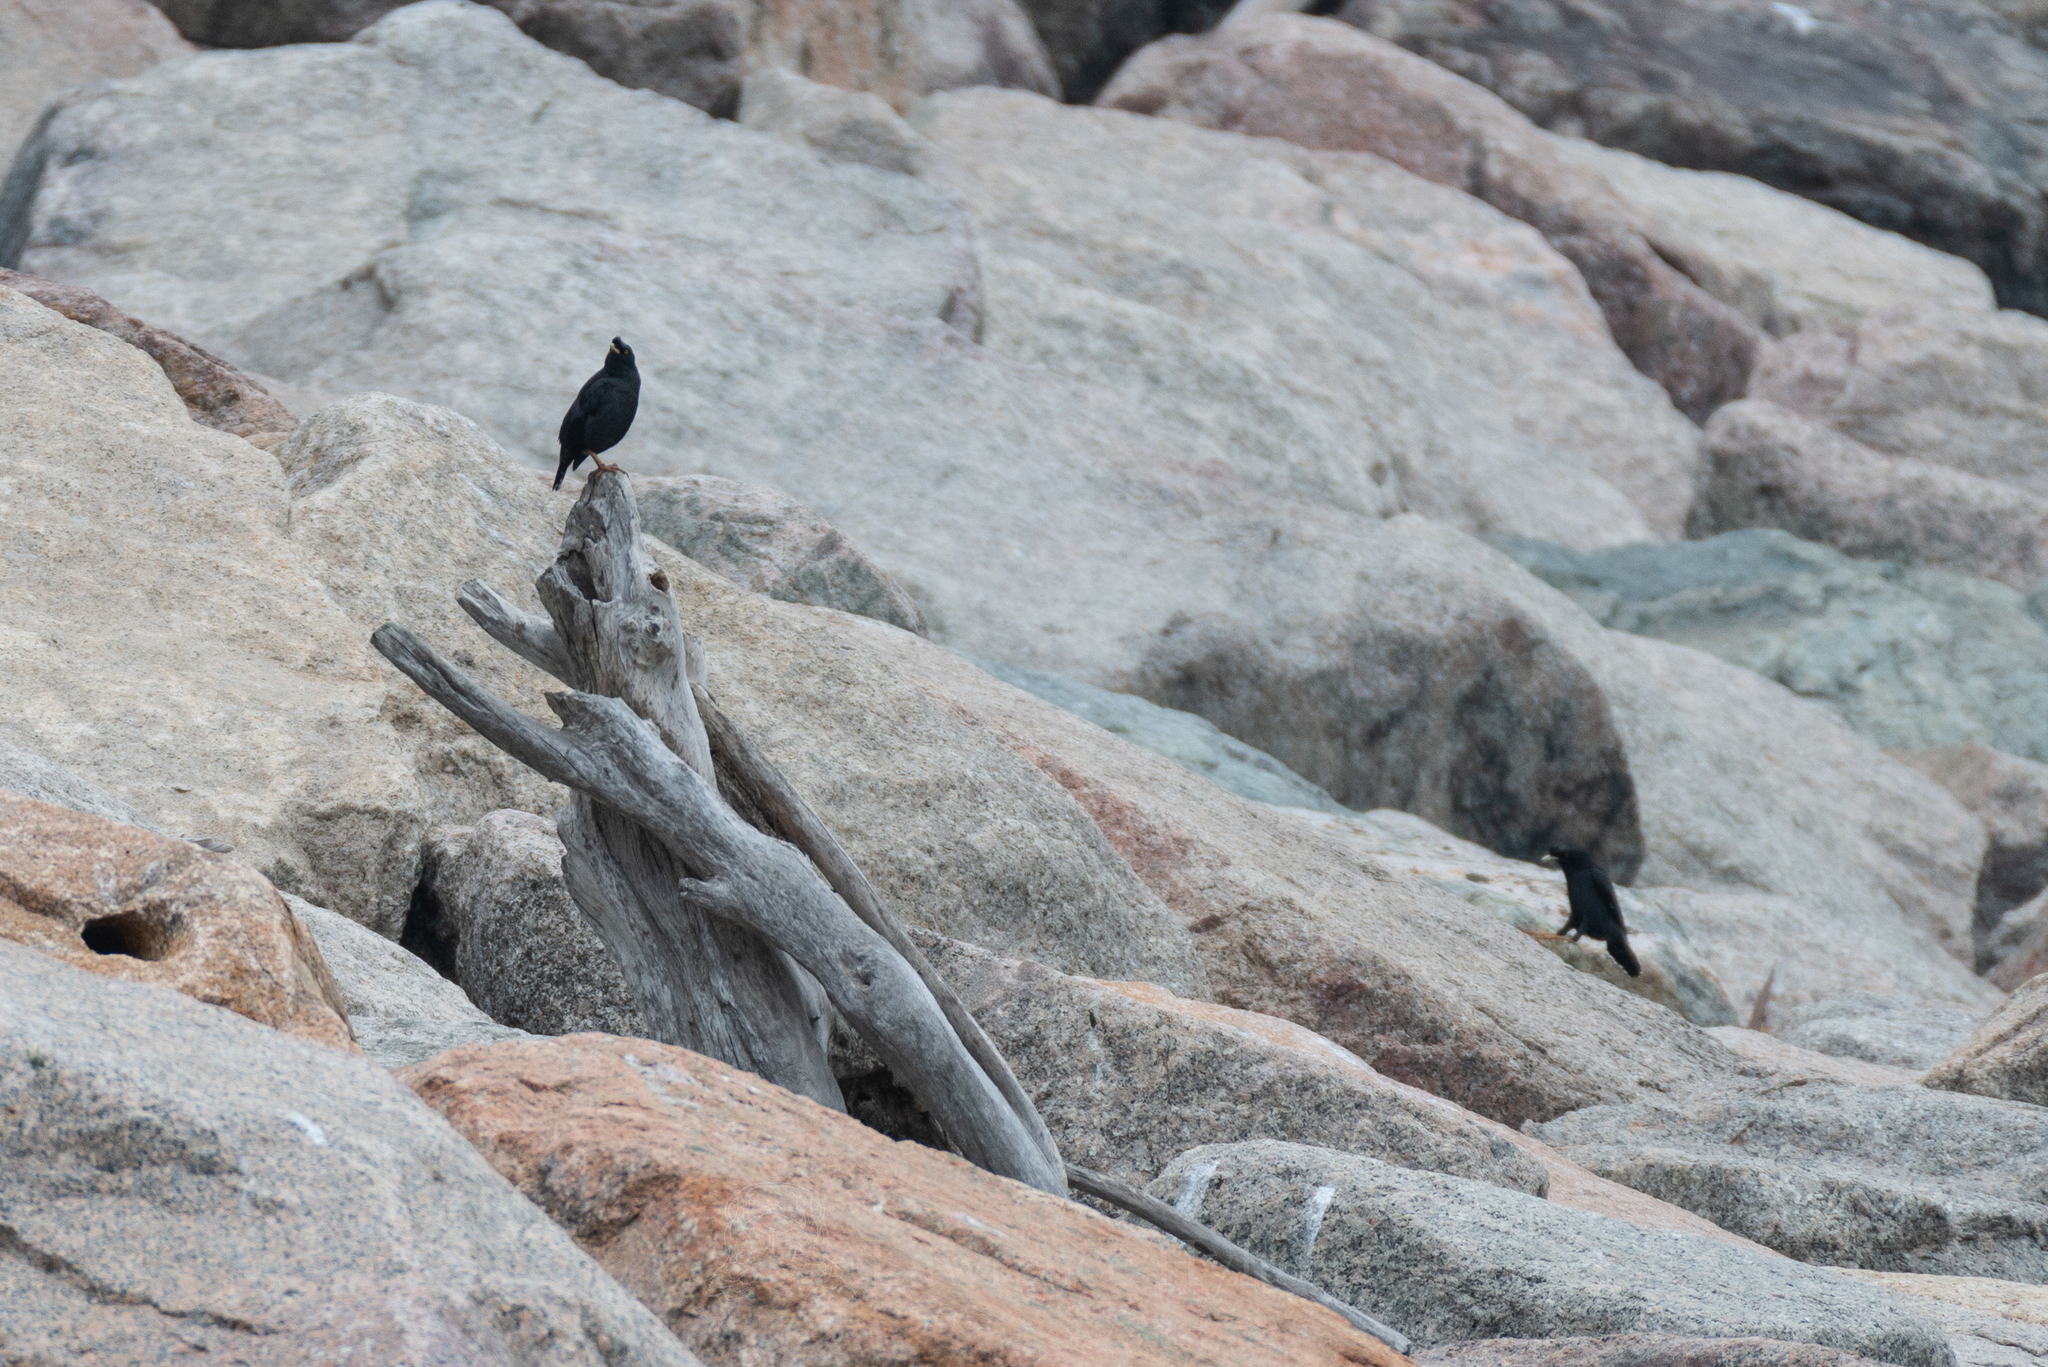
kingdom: Animalia
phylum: Chordata
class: Aves
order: Passeriformes
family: Sturnidae
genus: Acridotheres
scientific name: Acridotheres cristatellus
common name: Crested myna
